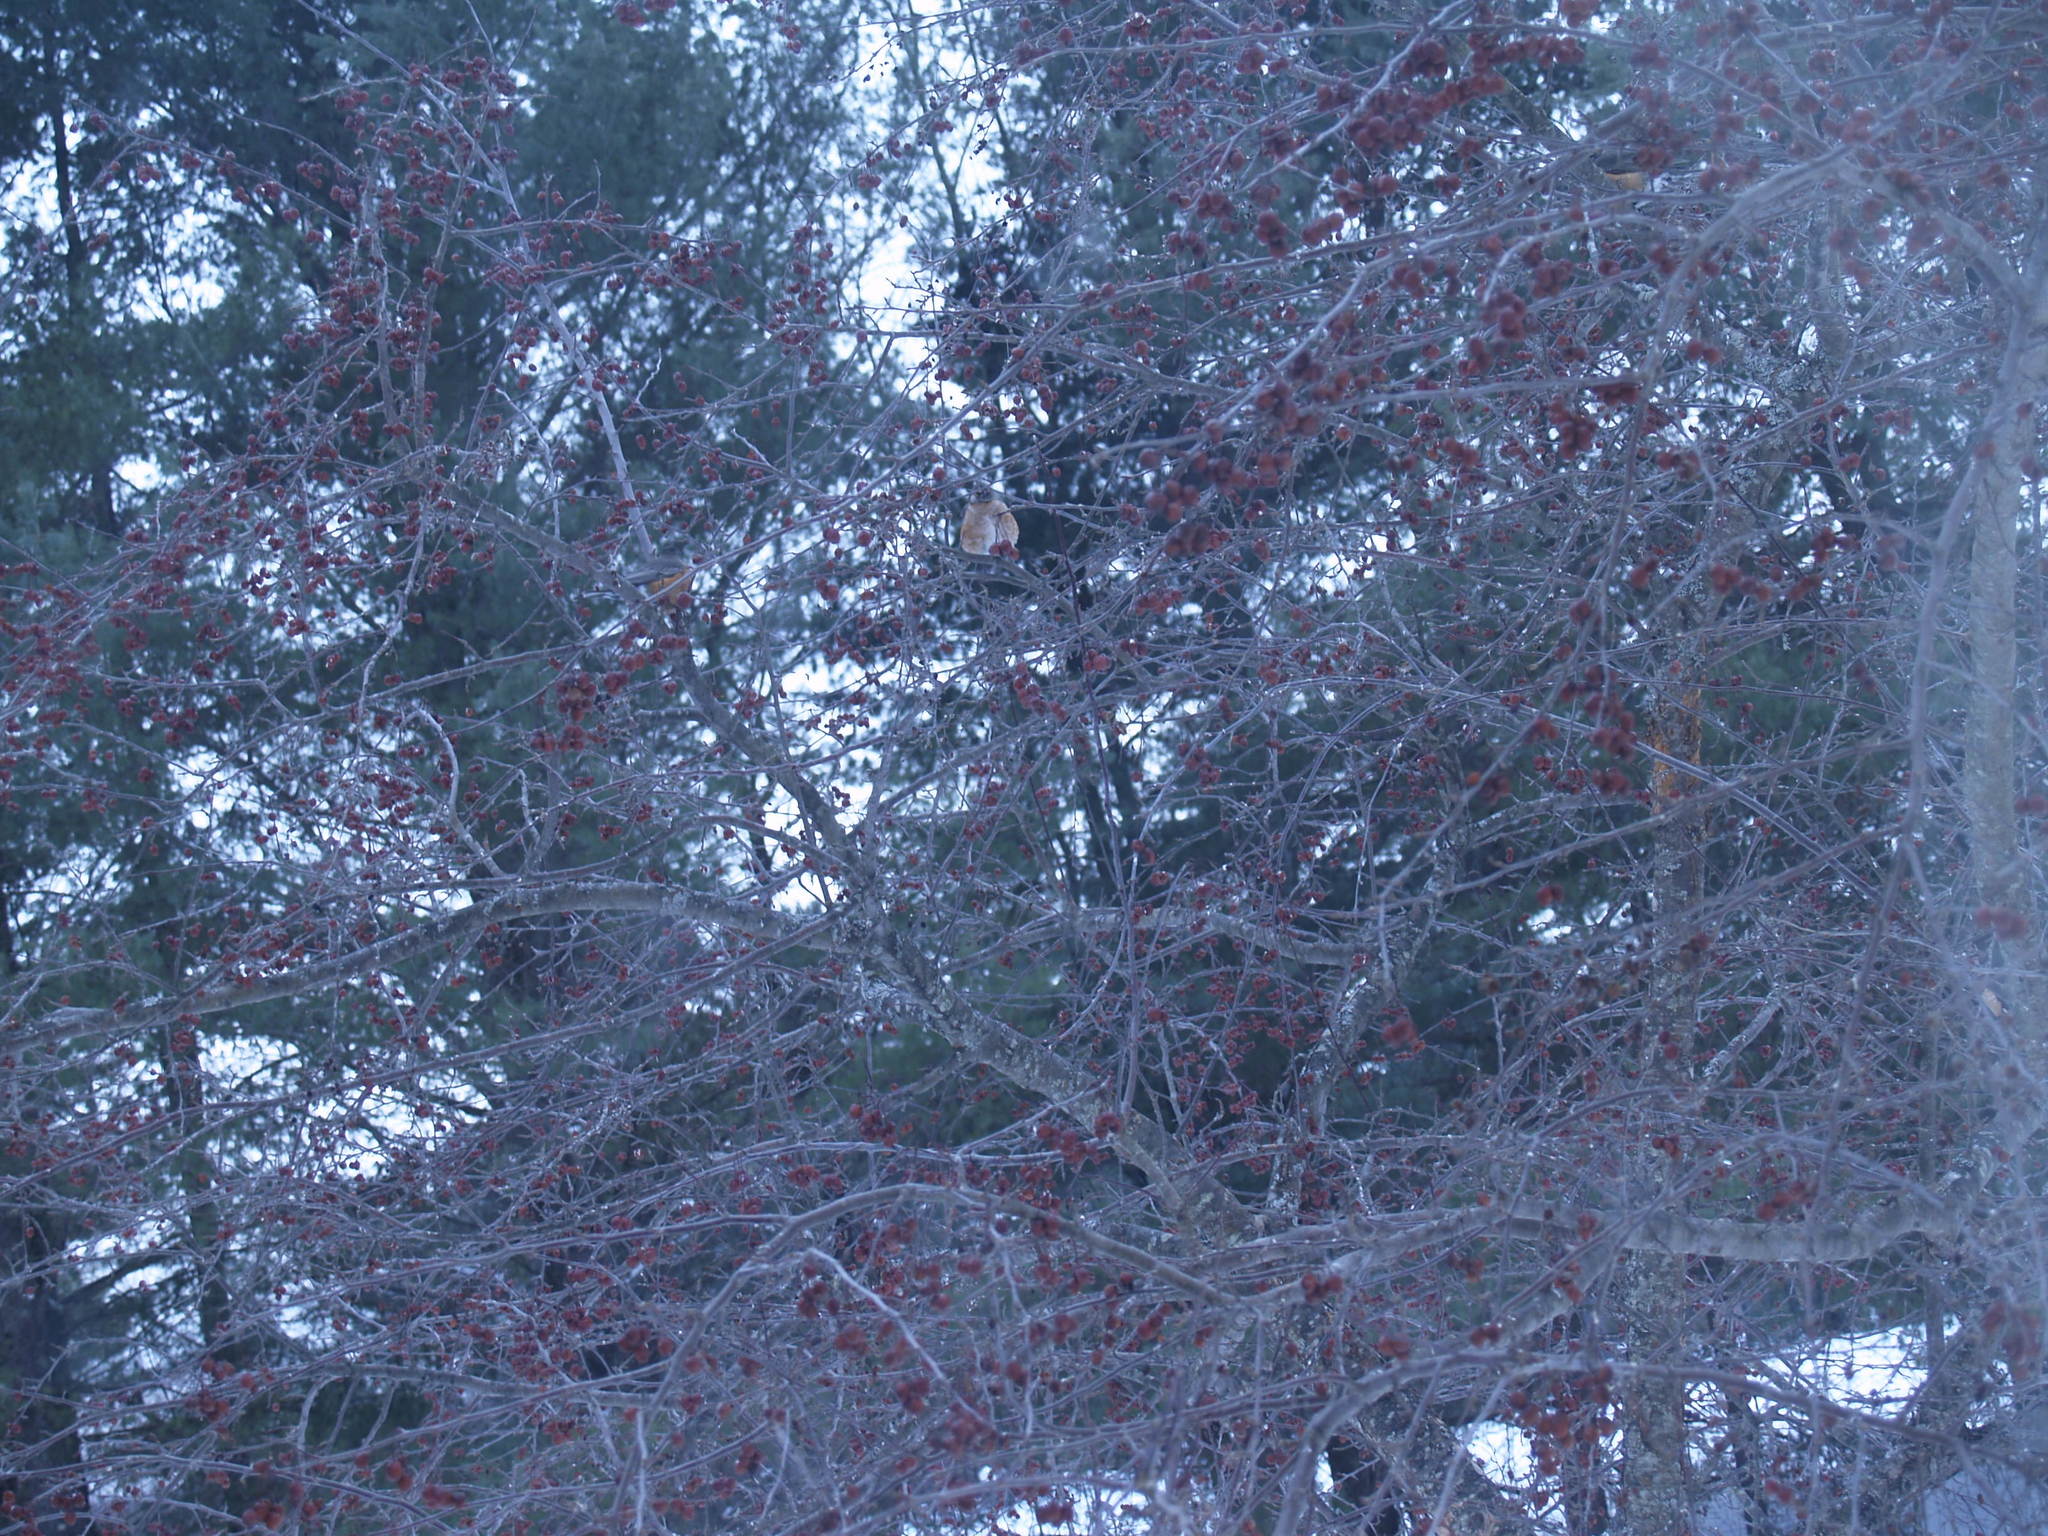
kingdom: Animalia
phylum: Chordata
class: Aves
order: Passeriformes
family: Turdidae
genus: Turdus
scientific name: Turdus migratorius
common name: American robin
